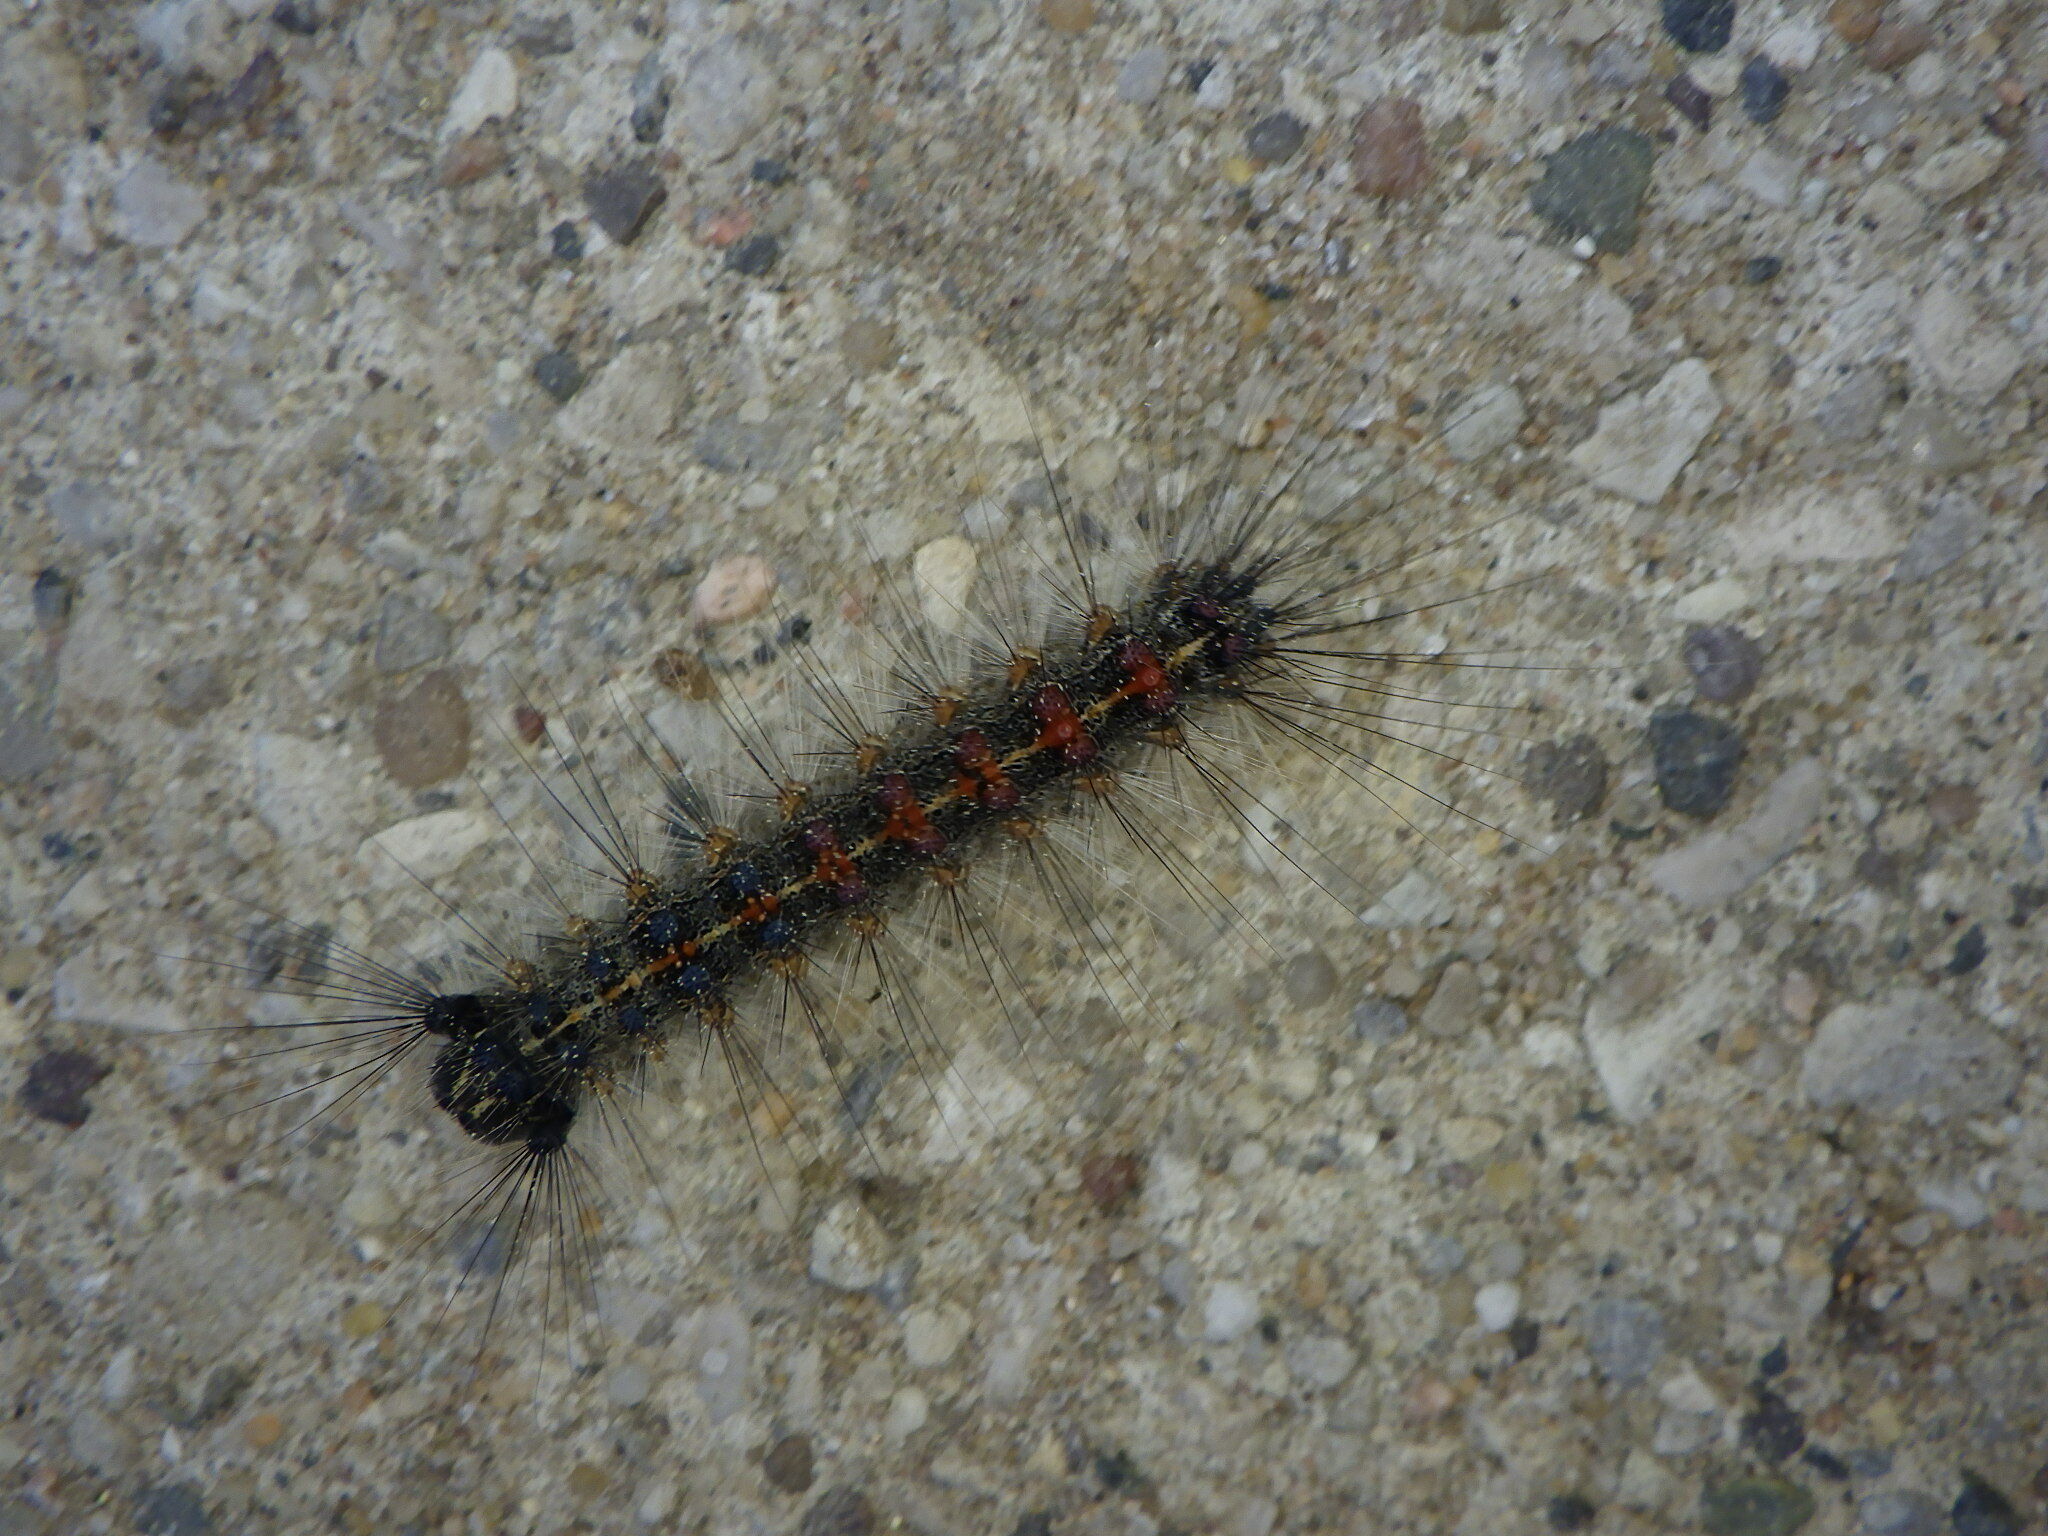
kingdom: Animalia
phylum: Arthropoda
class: Insecta
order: Lepidoptera
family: Erebidae
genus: Lymantria
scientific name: Lymantria dispar
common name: Gypsy moth
